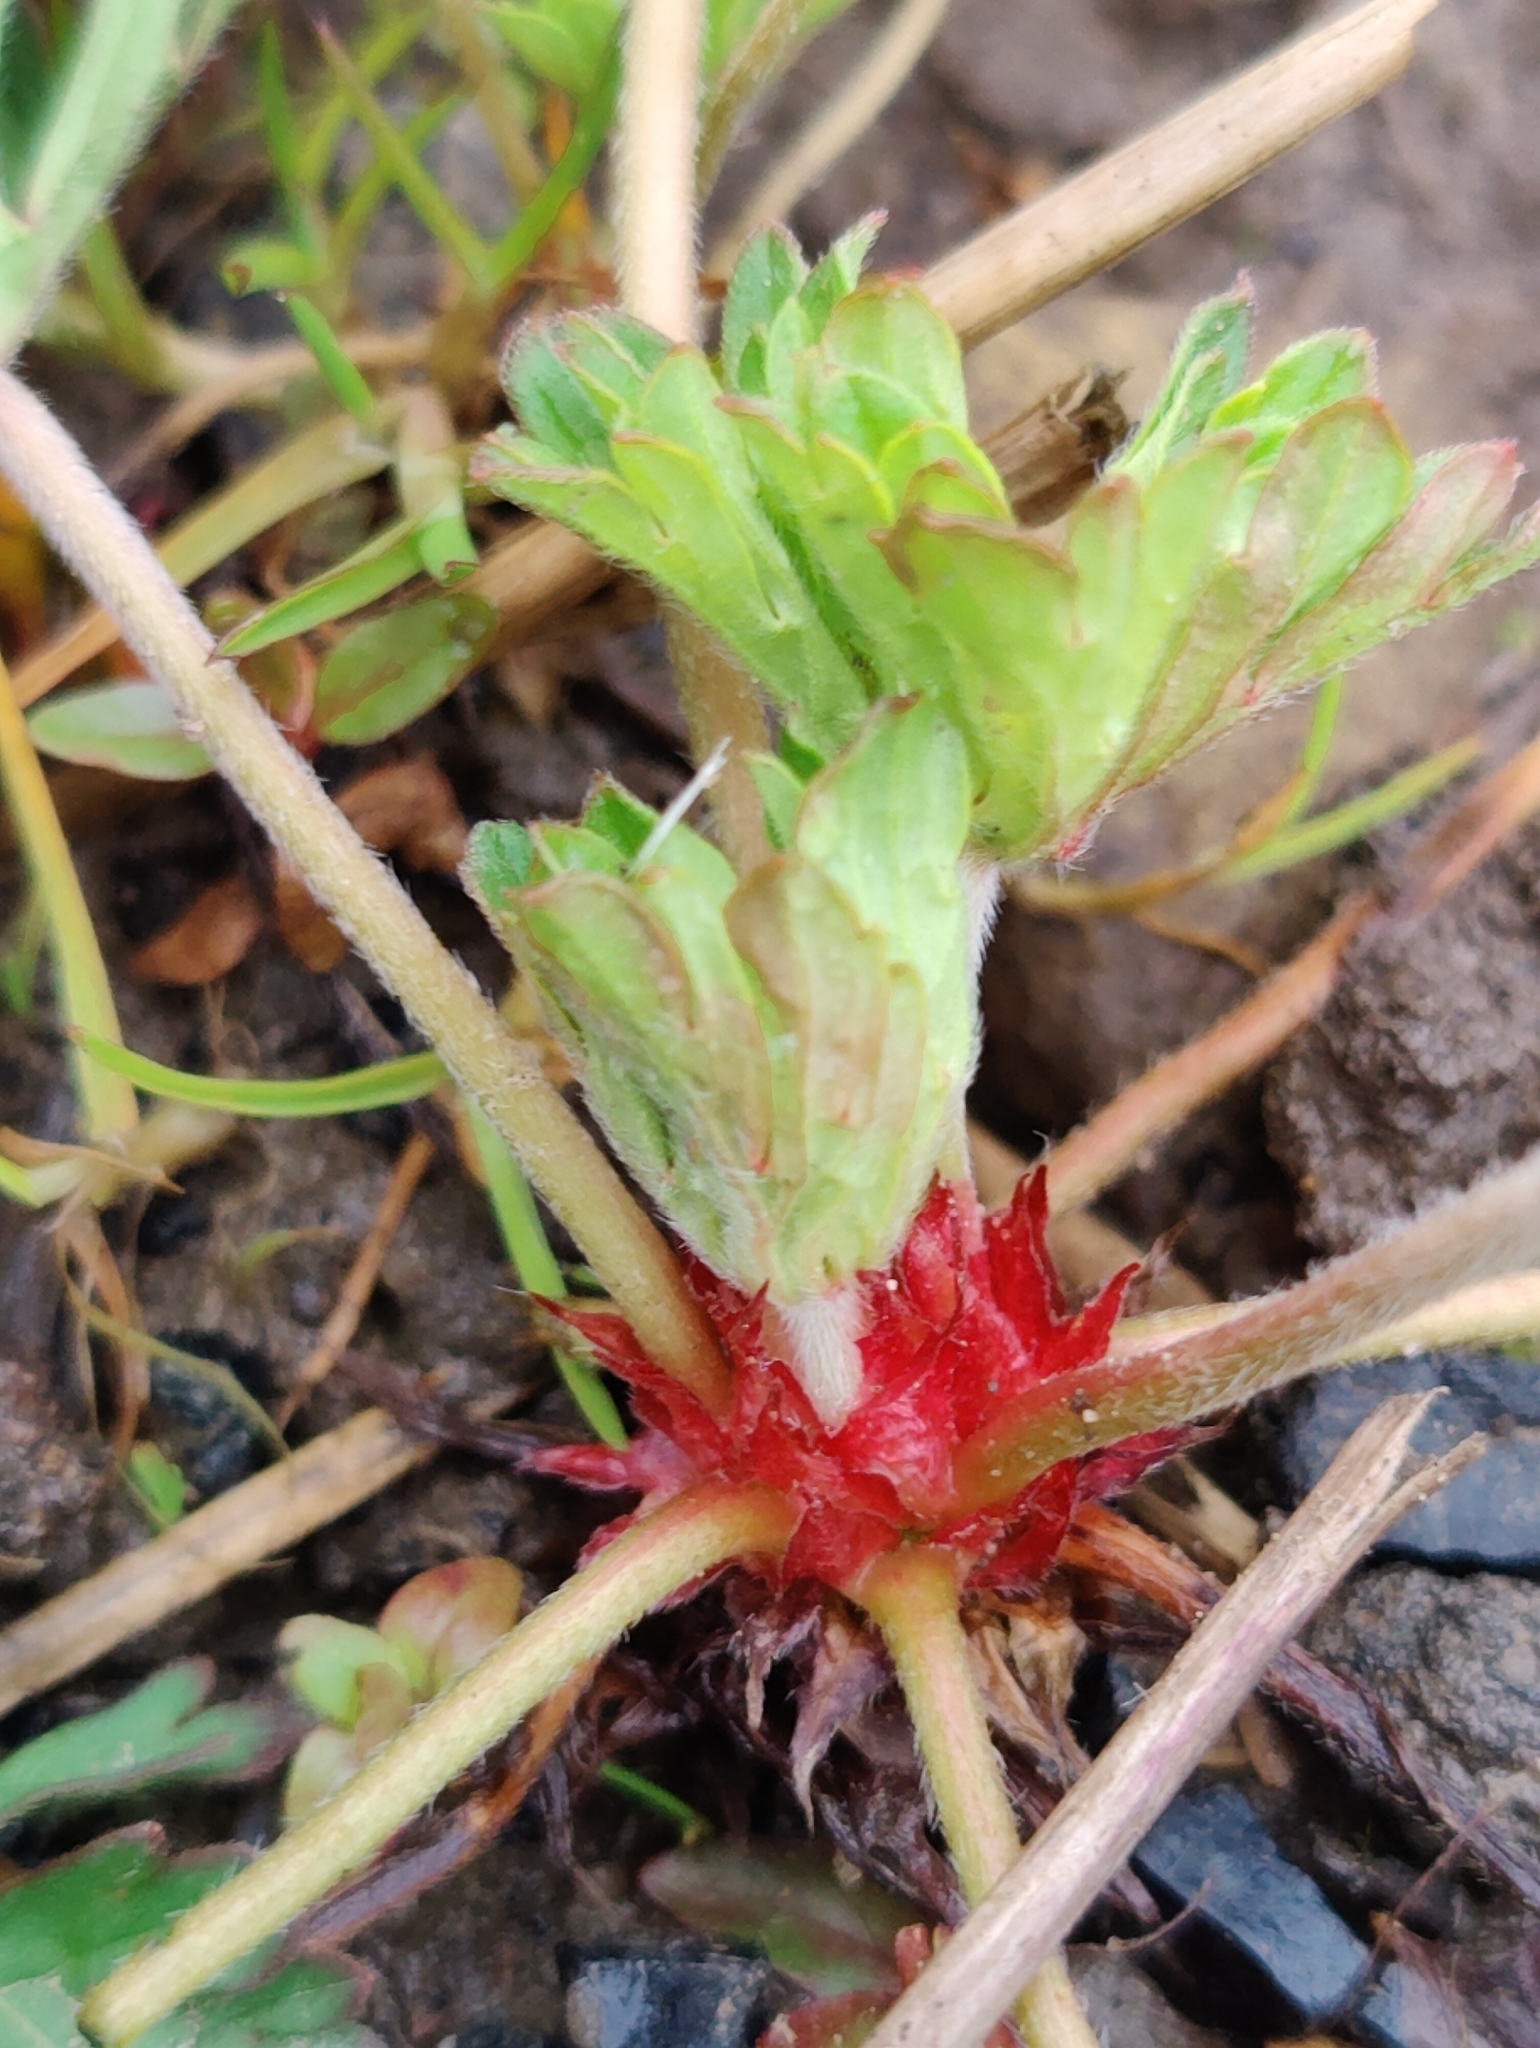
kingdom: Plantae
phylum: Tracheophyta
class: Magnoliopsida
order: Geraniales
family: Geraniaceae
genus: Geranium
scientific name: Geranium dissectum
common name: Cut-leaved crane's-bill
